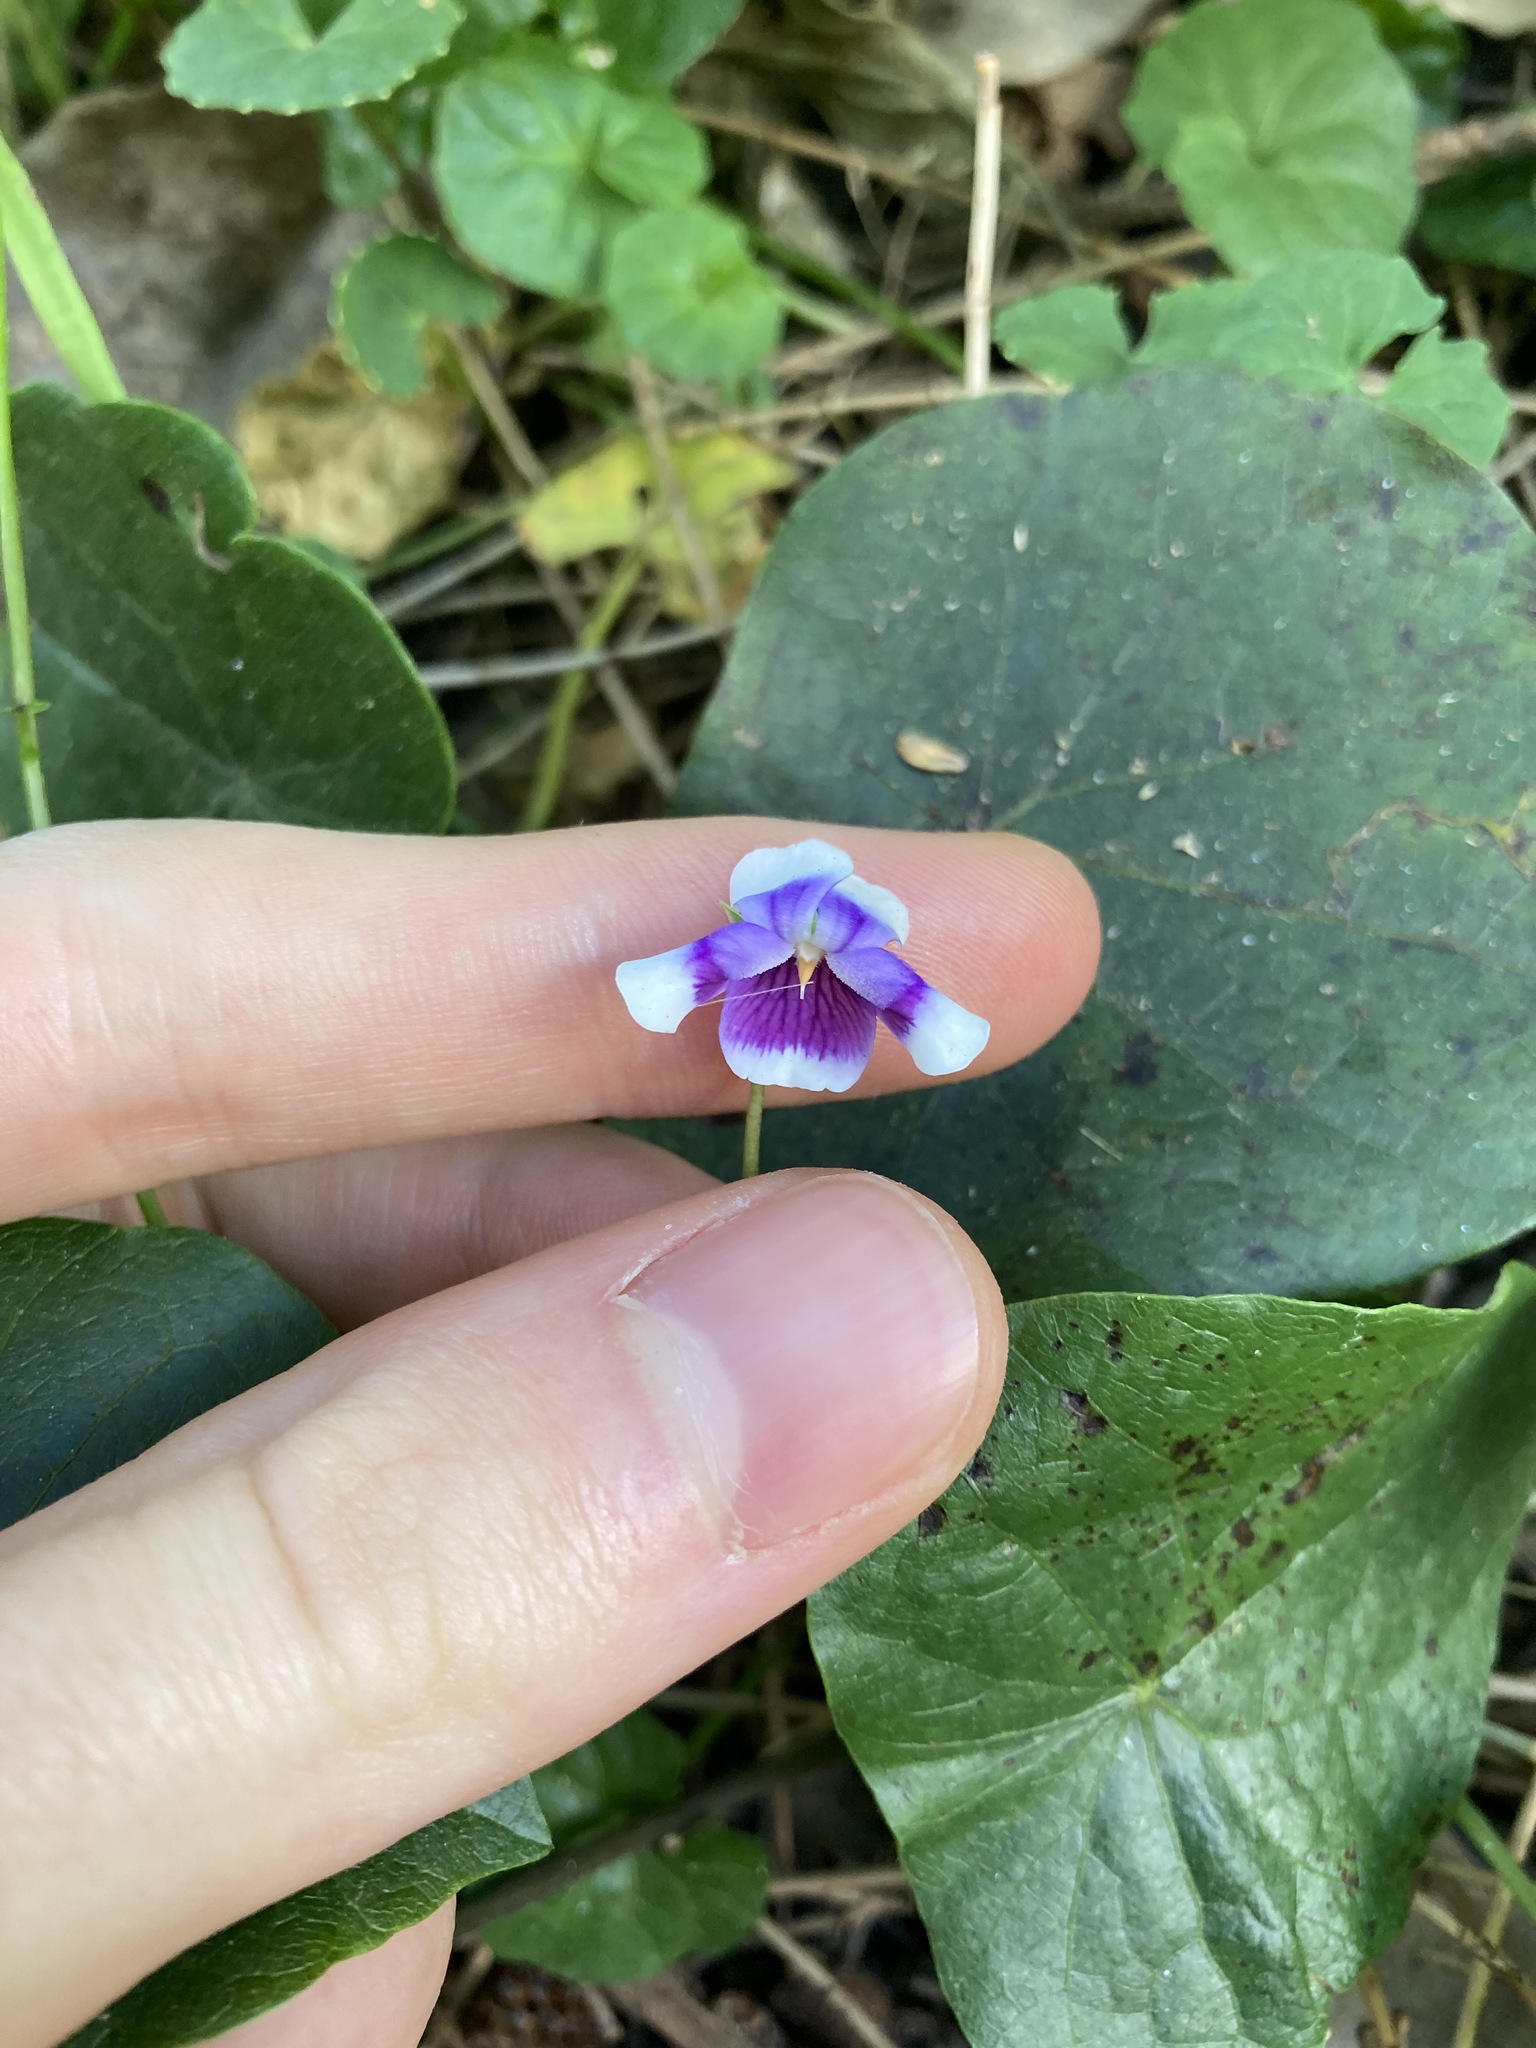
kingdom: Plantae
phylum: Tracheophyta
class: Magnoliopsida
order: Malpighiales
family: Violaceae
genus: Viola
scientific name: Viola banksii
